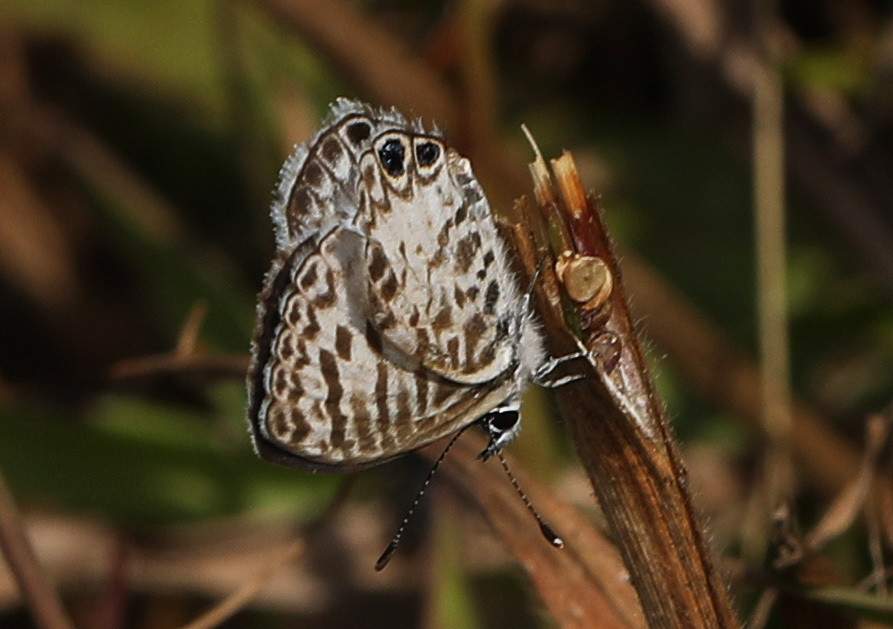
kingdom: Animalia
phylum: Arthropoda
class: Insecta
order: Lepidoptera
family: Lycaenidae
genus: Leptotes
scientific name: Leptotes cassius
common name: Cassius blue
